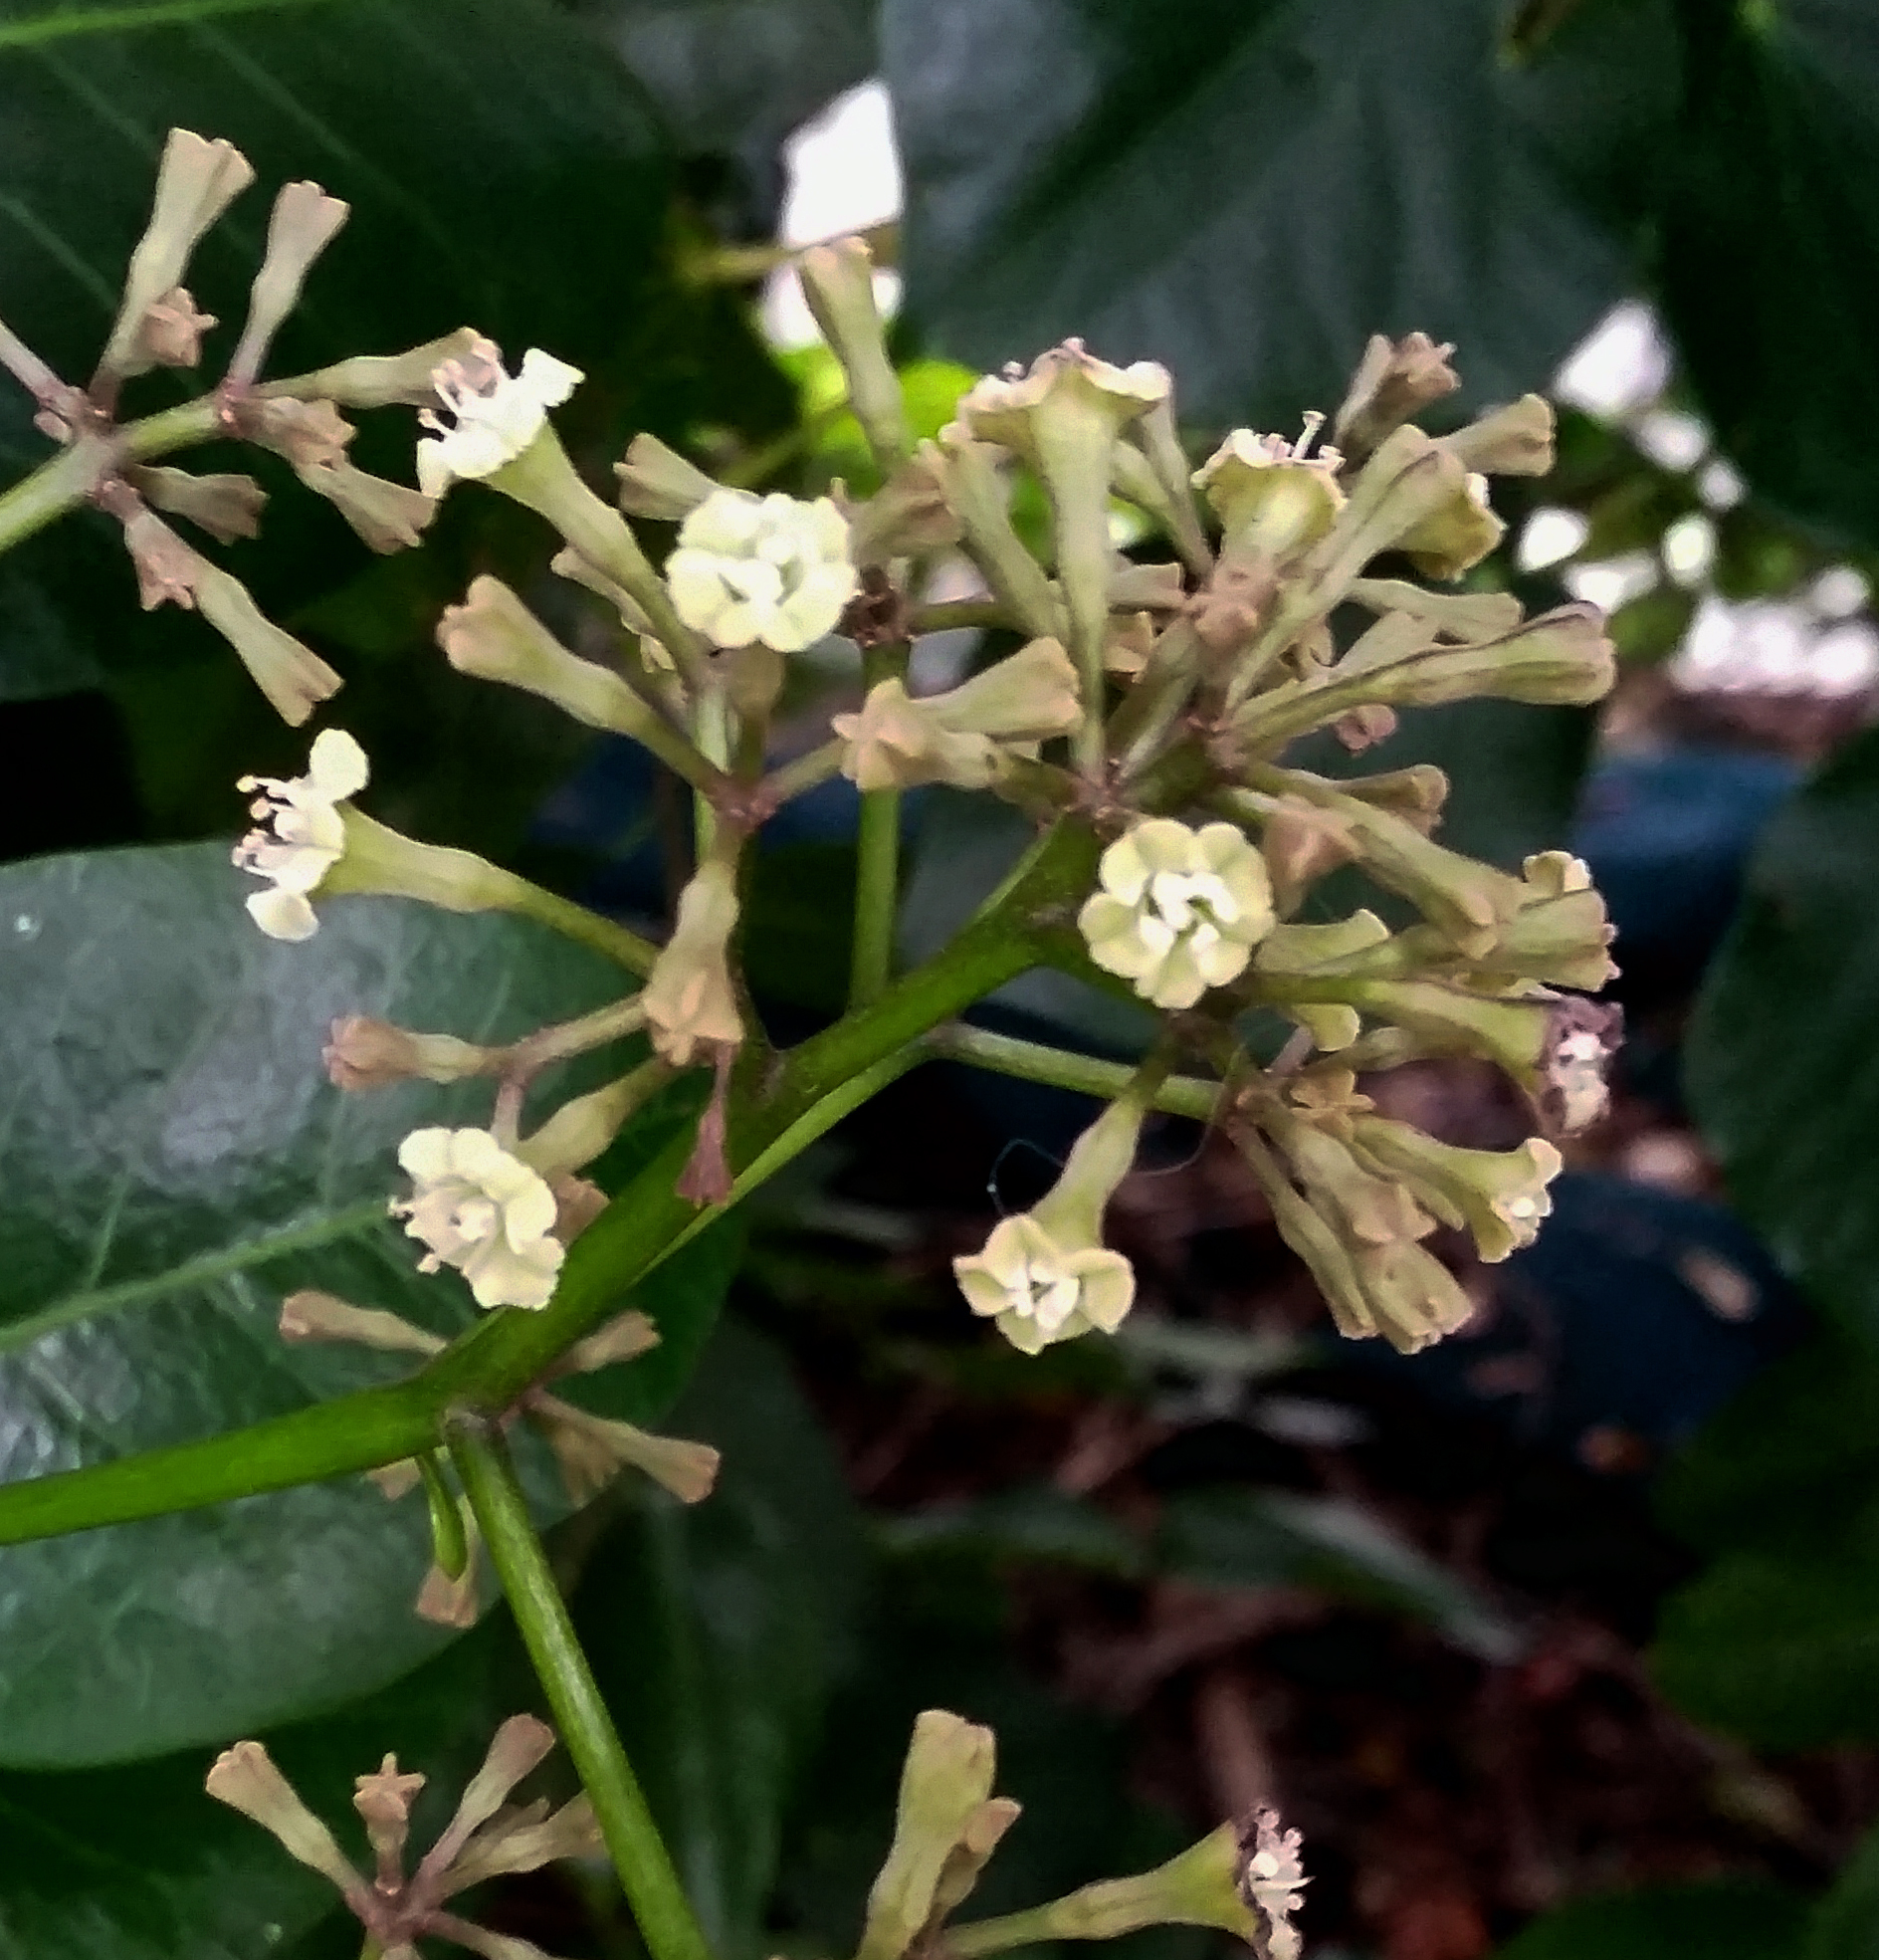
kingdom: Plantae
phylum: Tracheophyta
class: Magnoliopsida
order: Caryophyllales
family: Nyctaginaceae
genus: Ceodes
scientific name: Ceodes brunoniana
